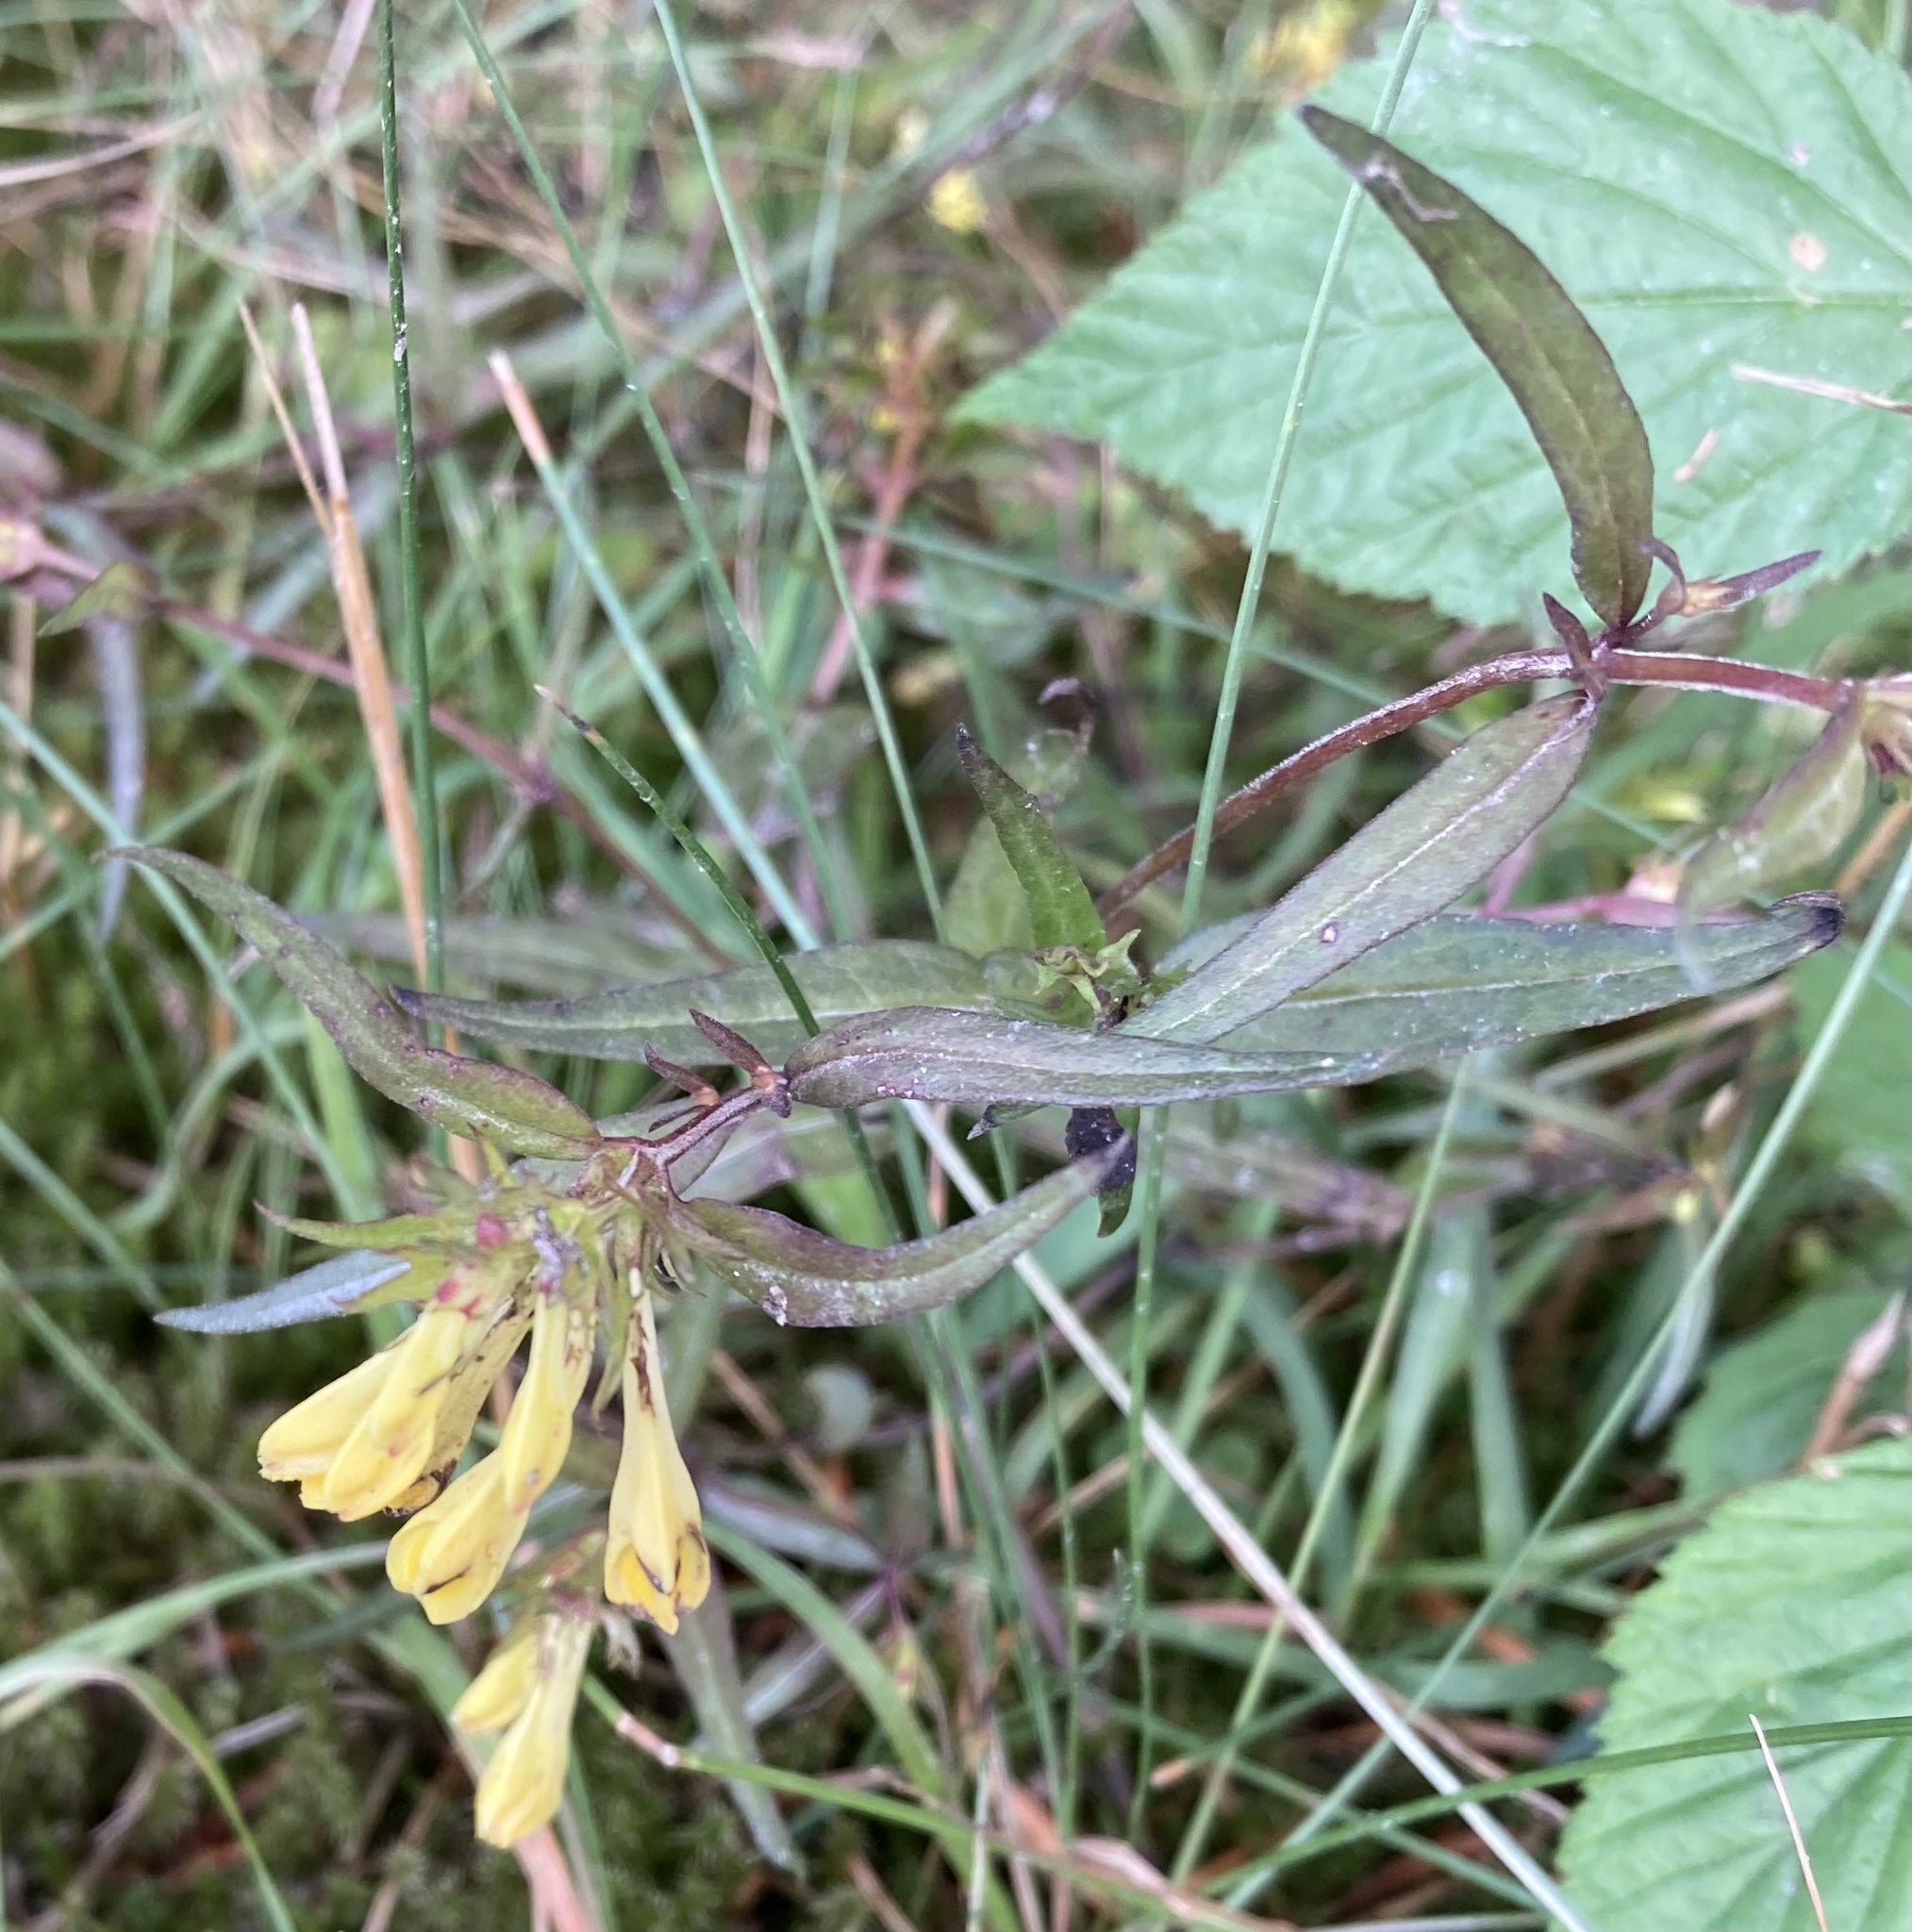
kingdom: Plantae
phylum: Tracheophyta
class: Magnoliopsida
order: Lamiales
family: Orobanchaceae
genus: Melampyrum
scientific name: Melampyrum pratense
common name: Common cow-wheat
